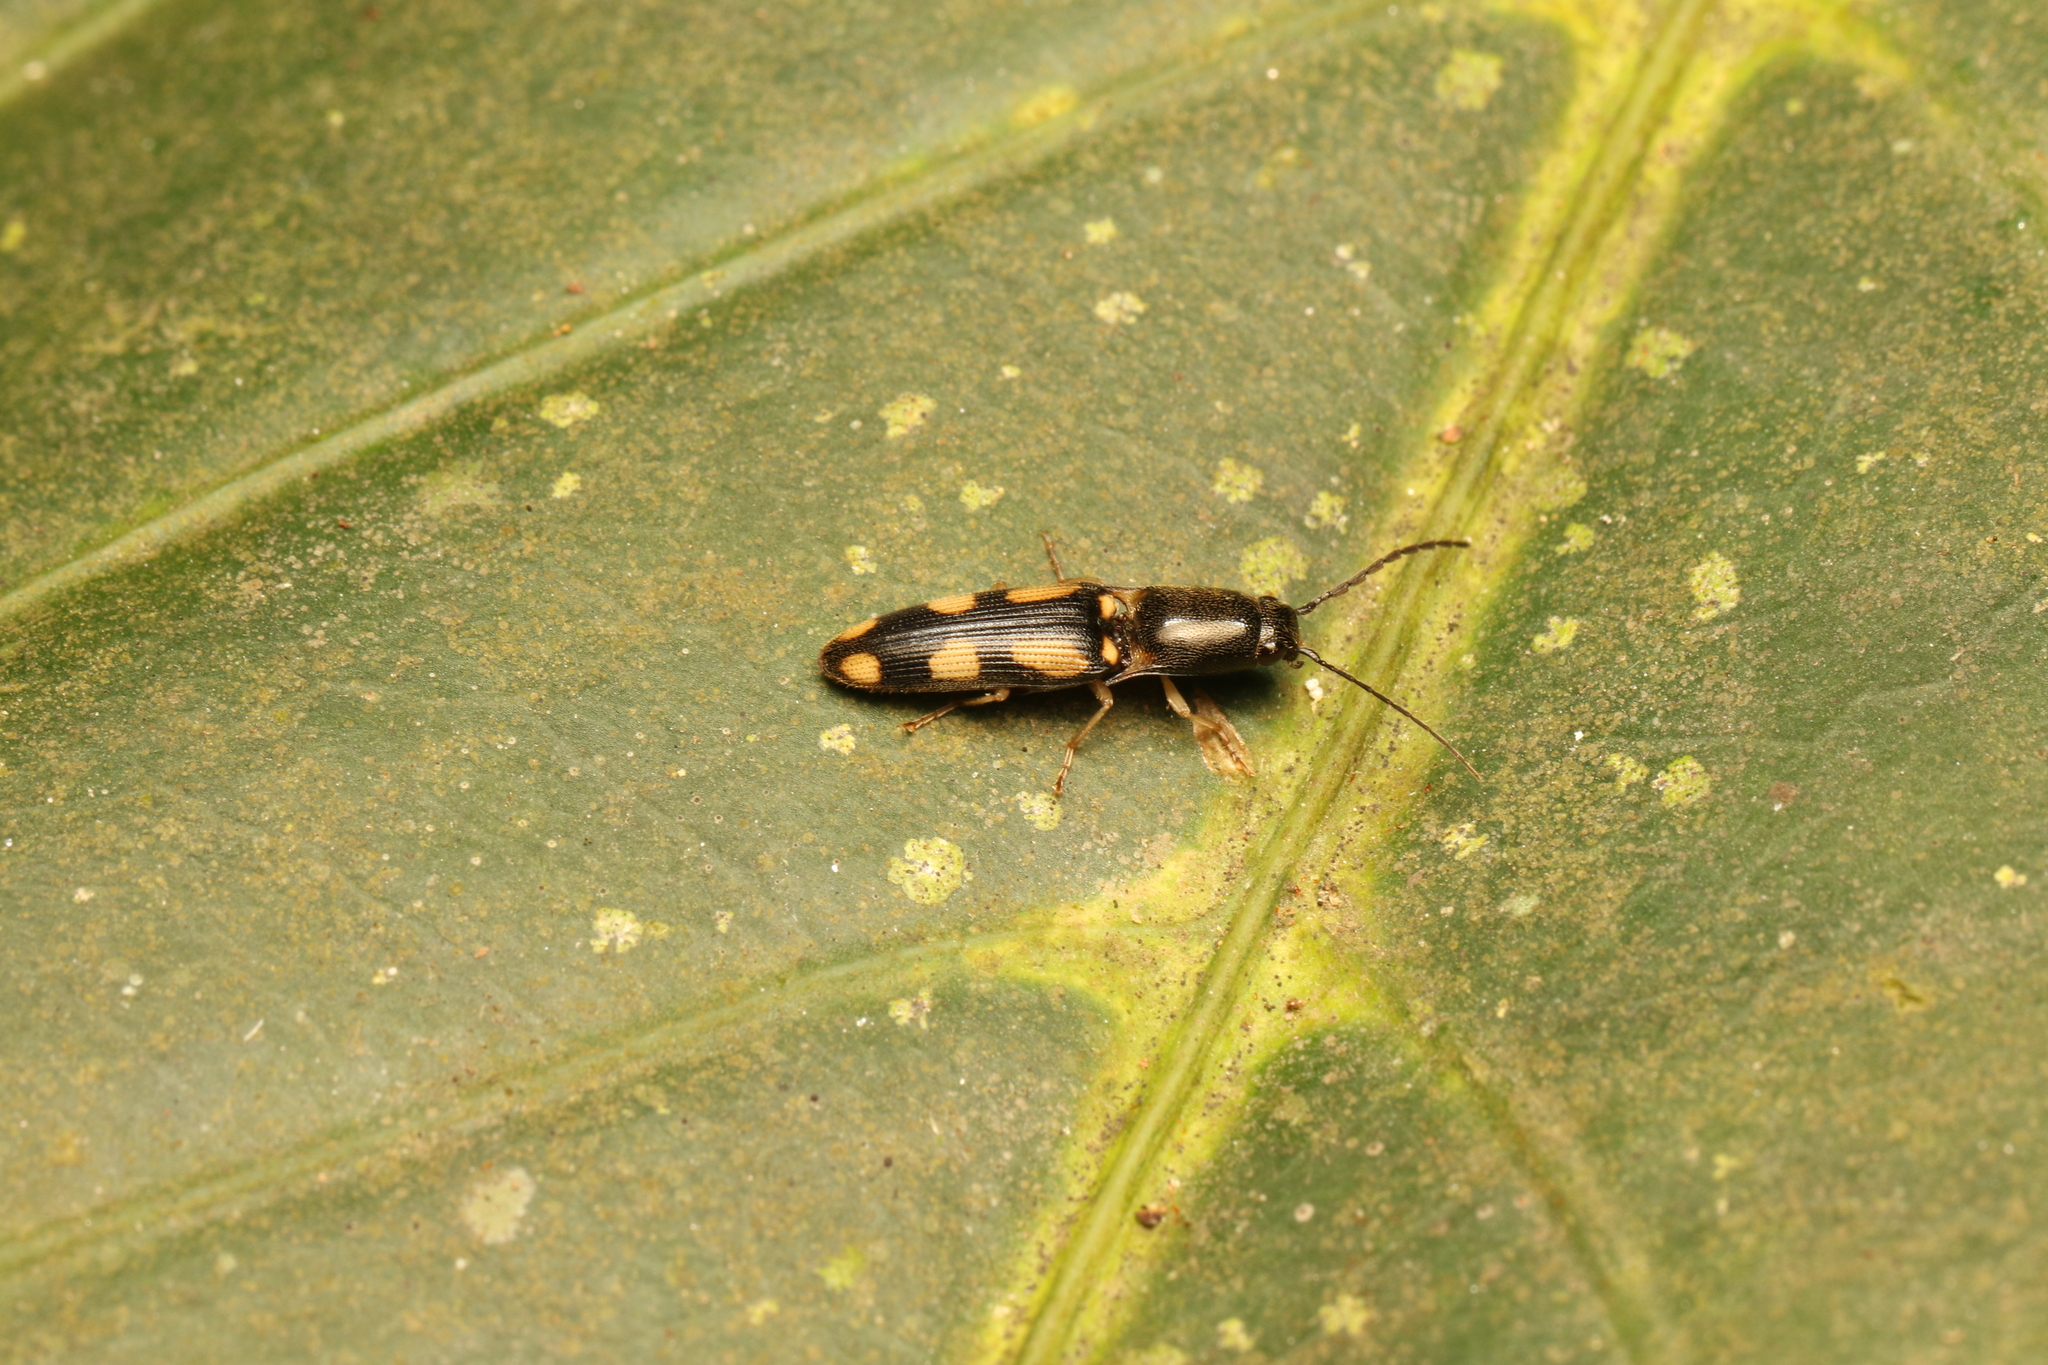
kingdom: Animalia
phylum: Arthropoda
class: Insecta
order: Coleoptera
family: Elateridae
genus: Aeolus
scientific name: Aeolus
